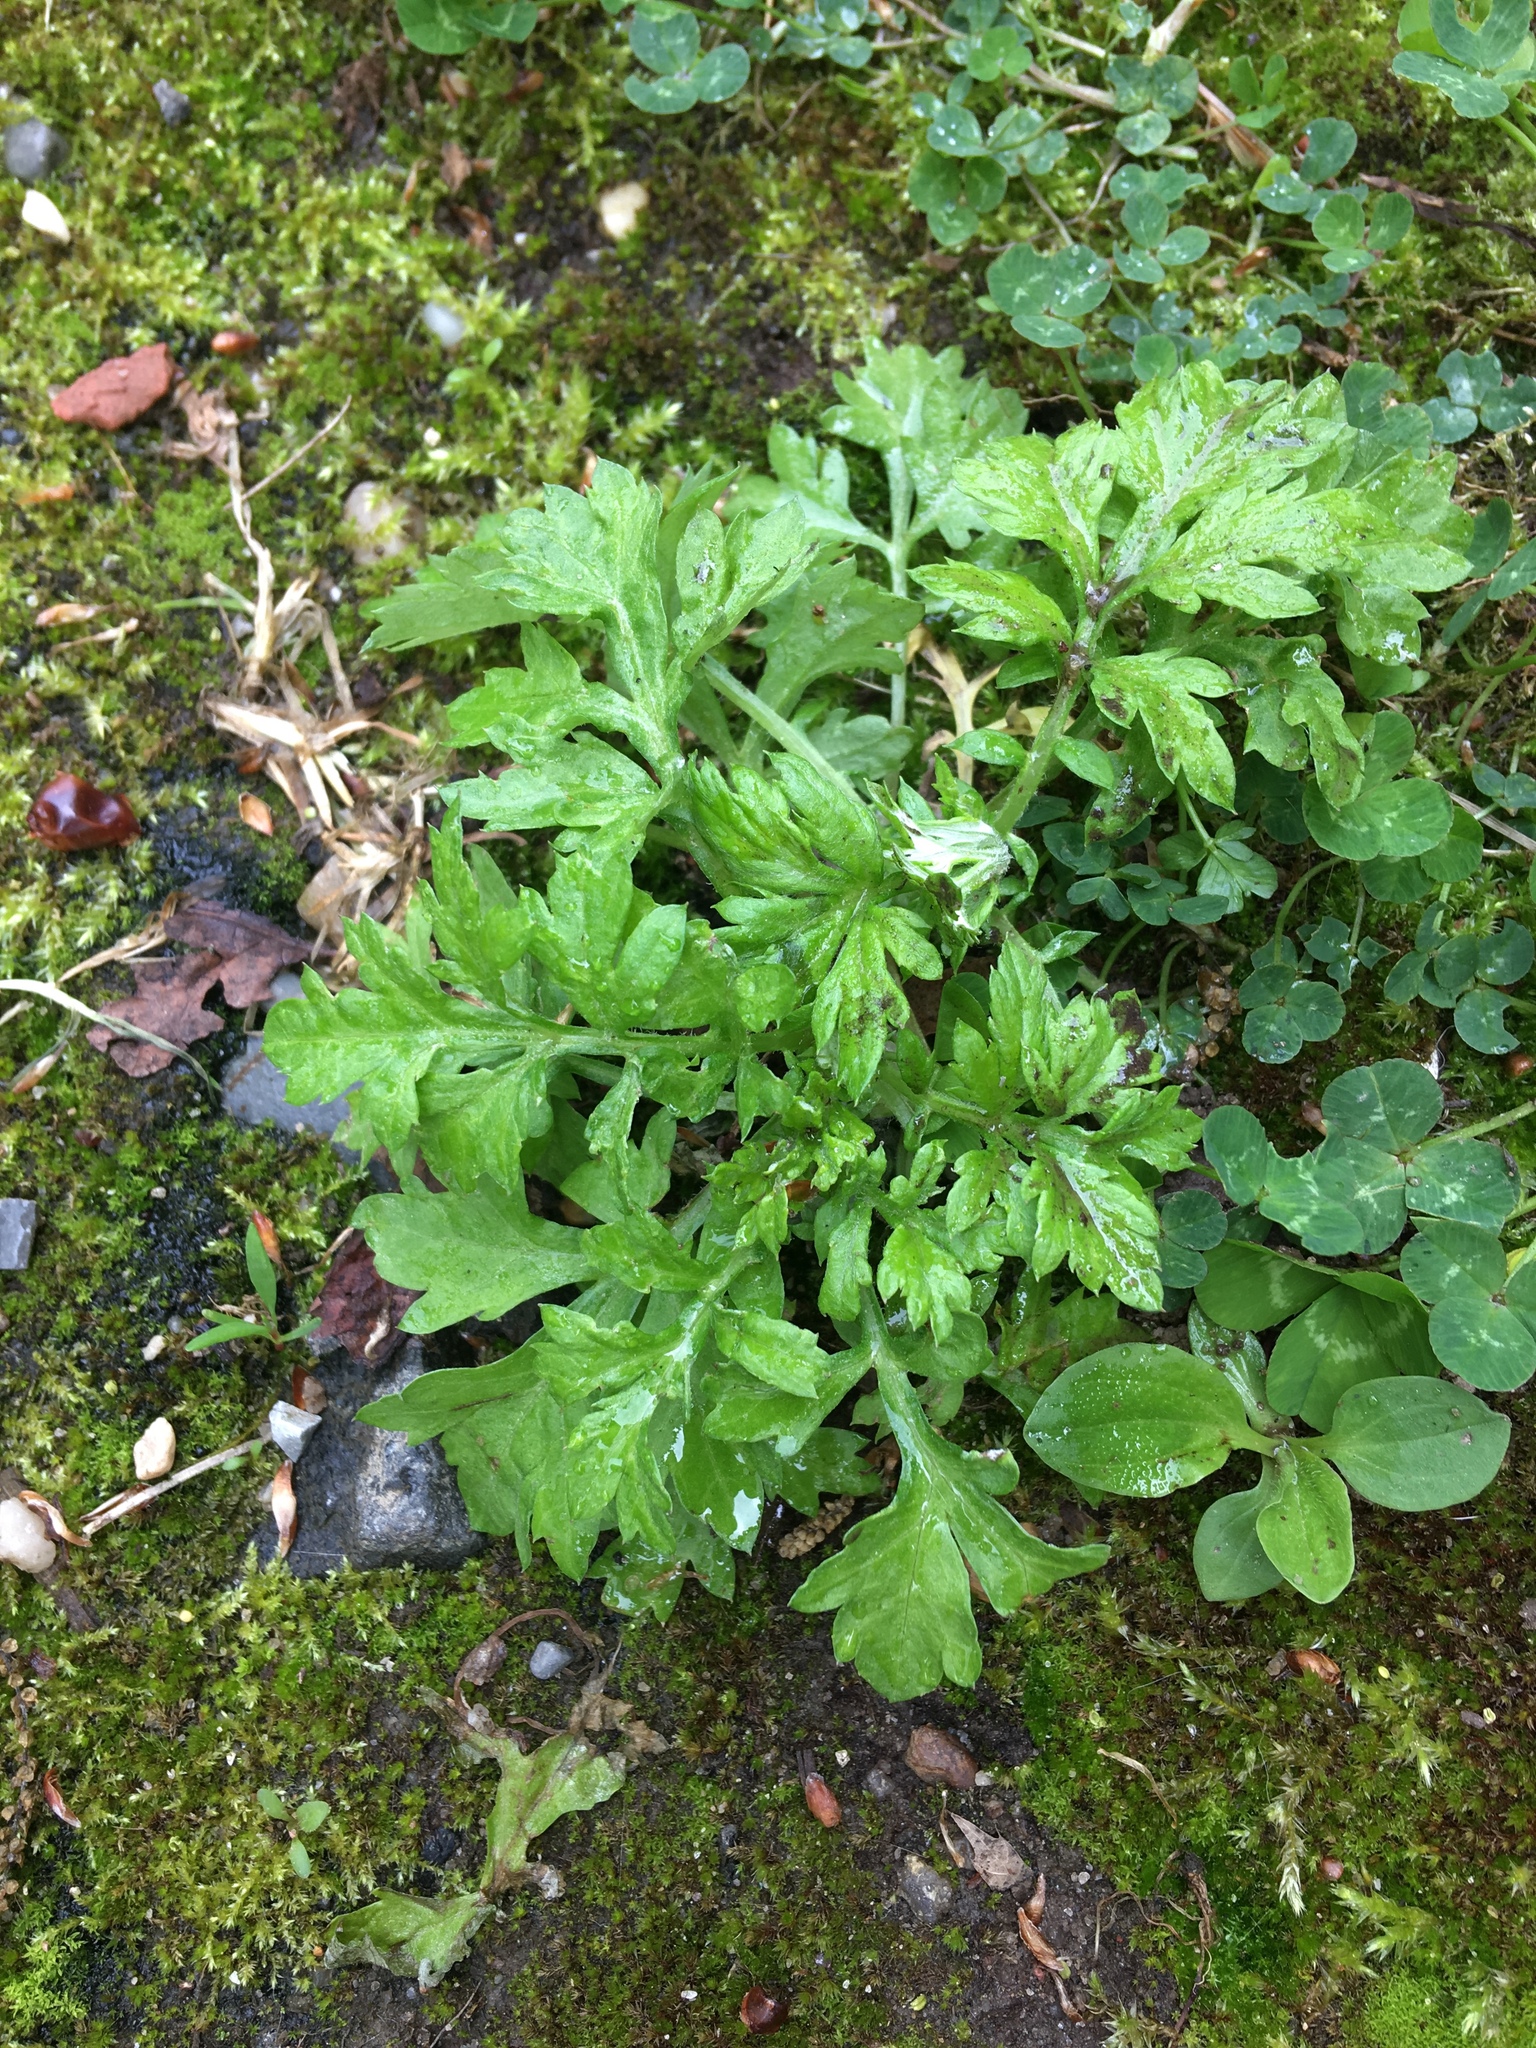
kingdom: Plantae
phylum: Tracheophyta
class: Magnoliopsida
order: Asterales
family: Asteraceae
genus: Artemisia
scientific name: Artemisia vulgaris
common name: Mugwort
